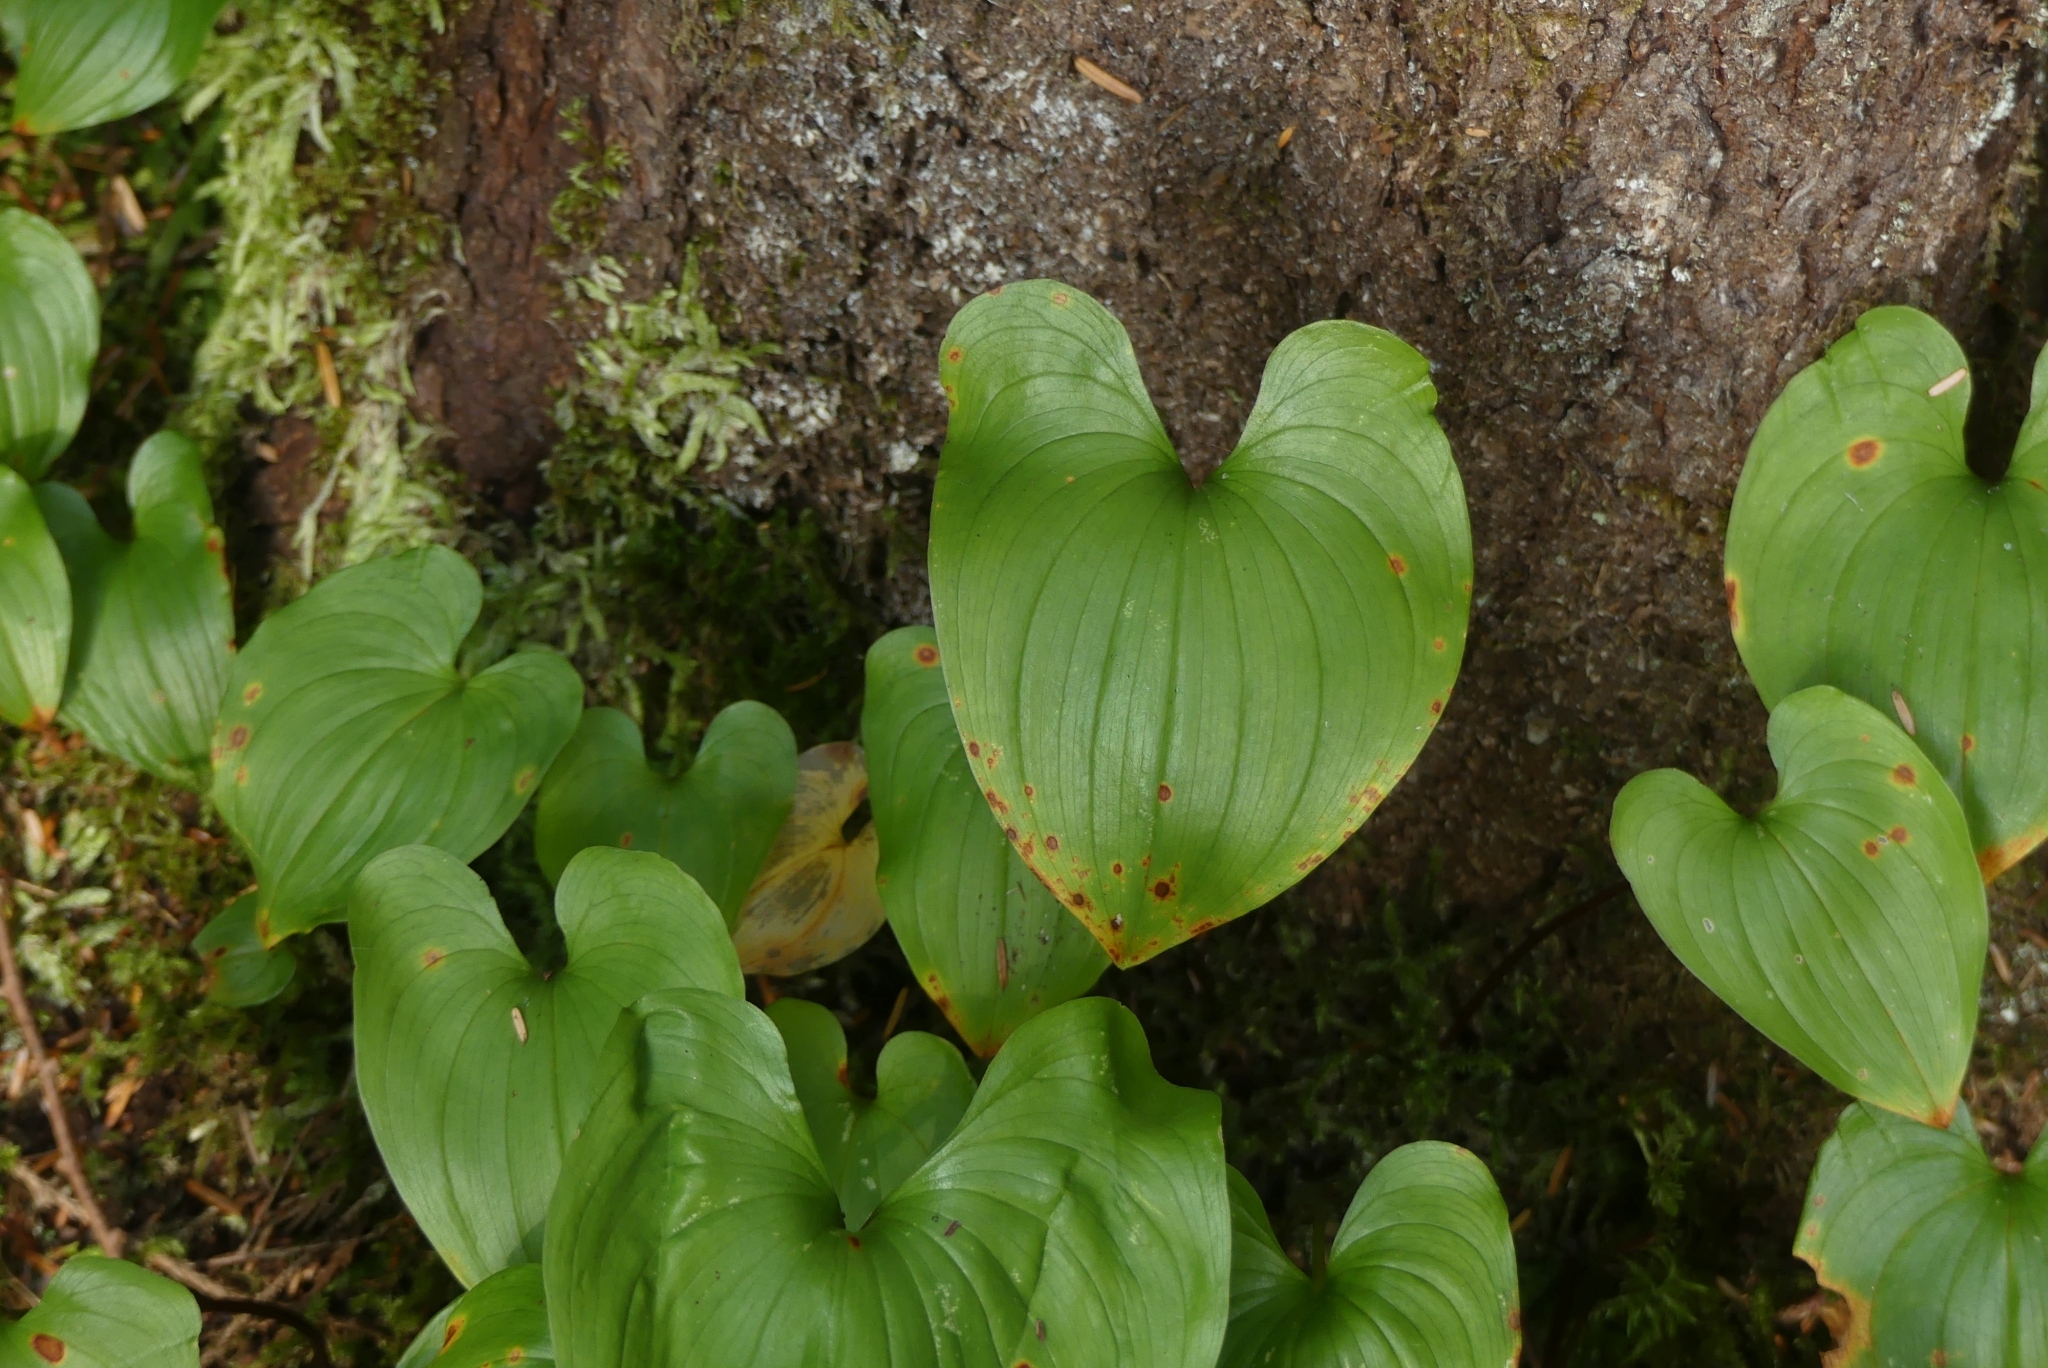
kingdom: Plantae
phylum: Tracheophyta
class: Liliopsida
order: Asparagales
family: Asparagaceae
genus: Maianthemum
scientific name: Maianthemum dilatatum
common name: False lily-of-the-valley
